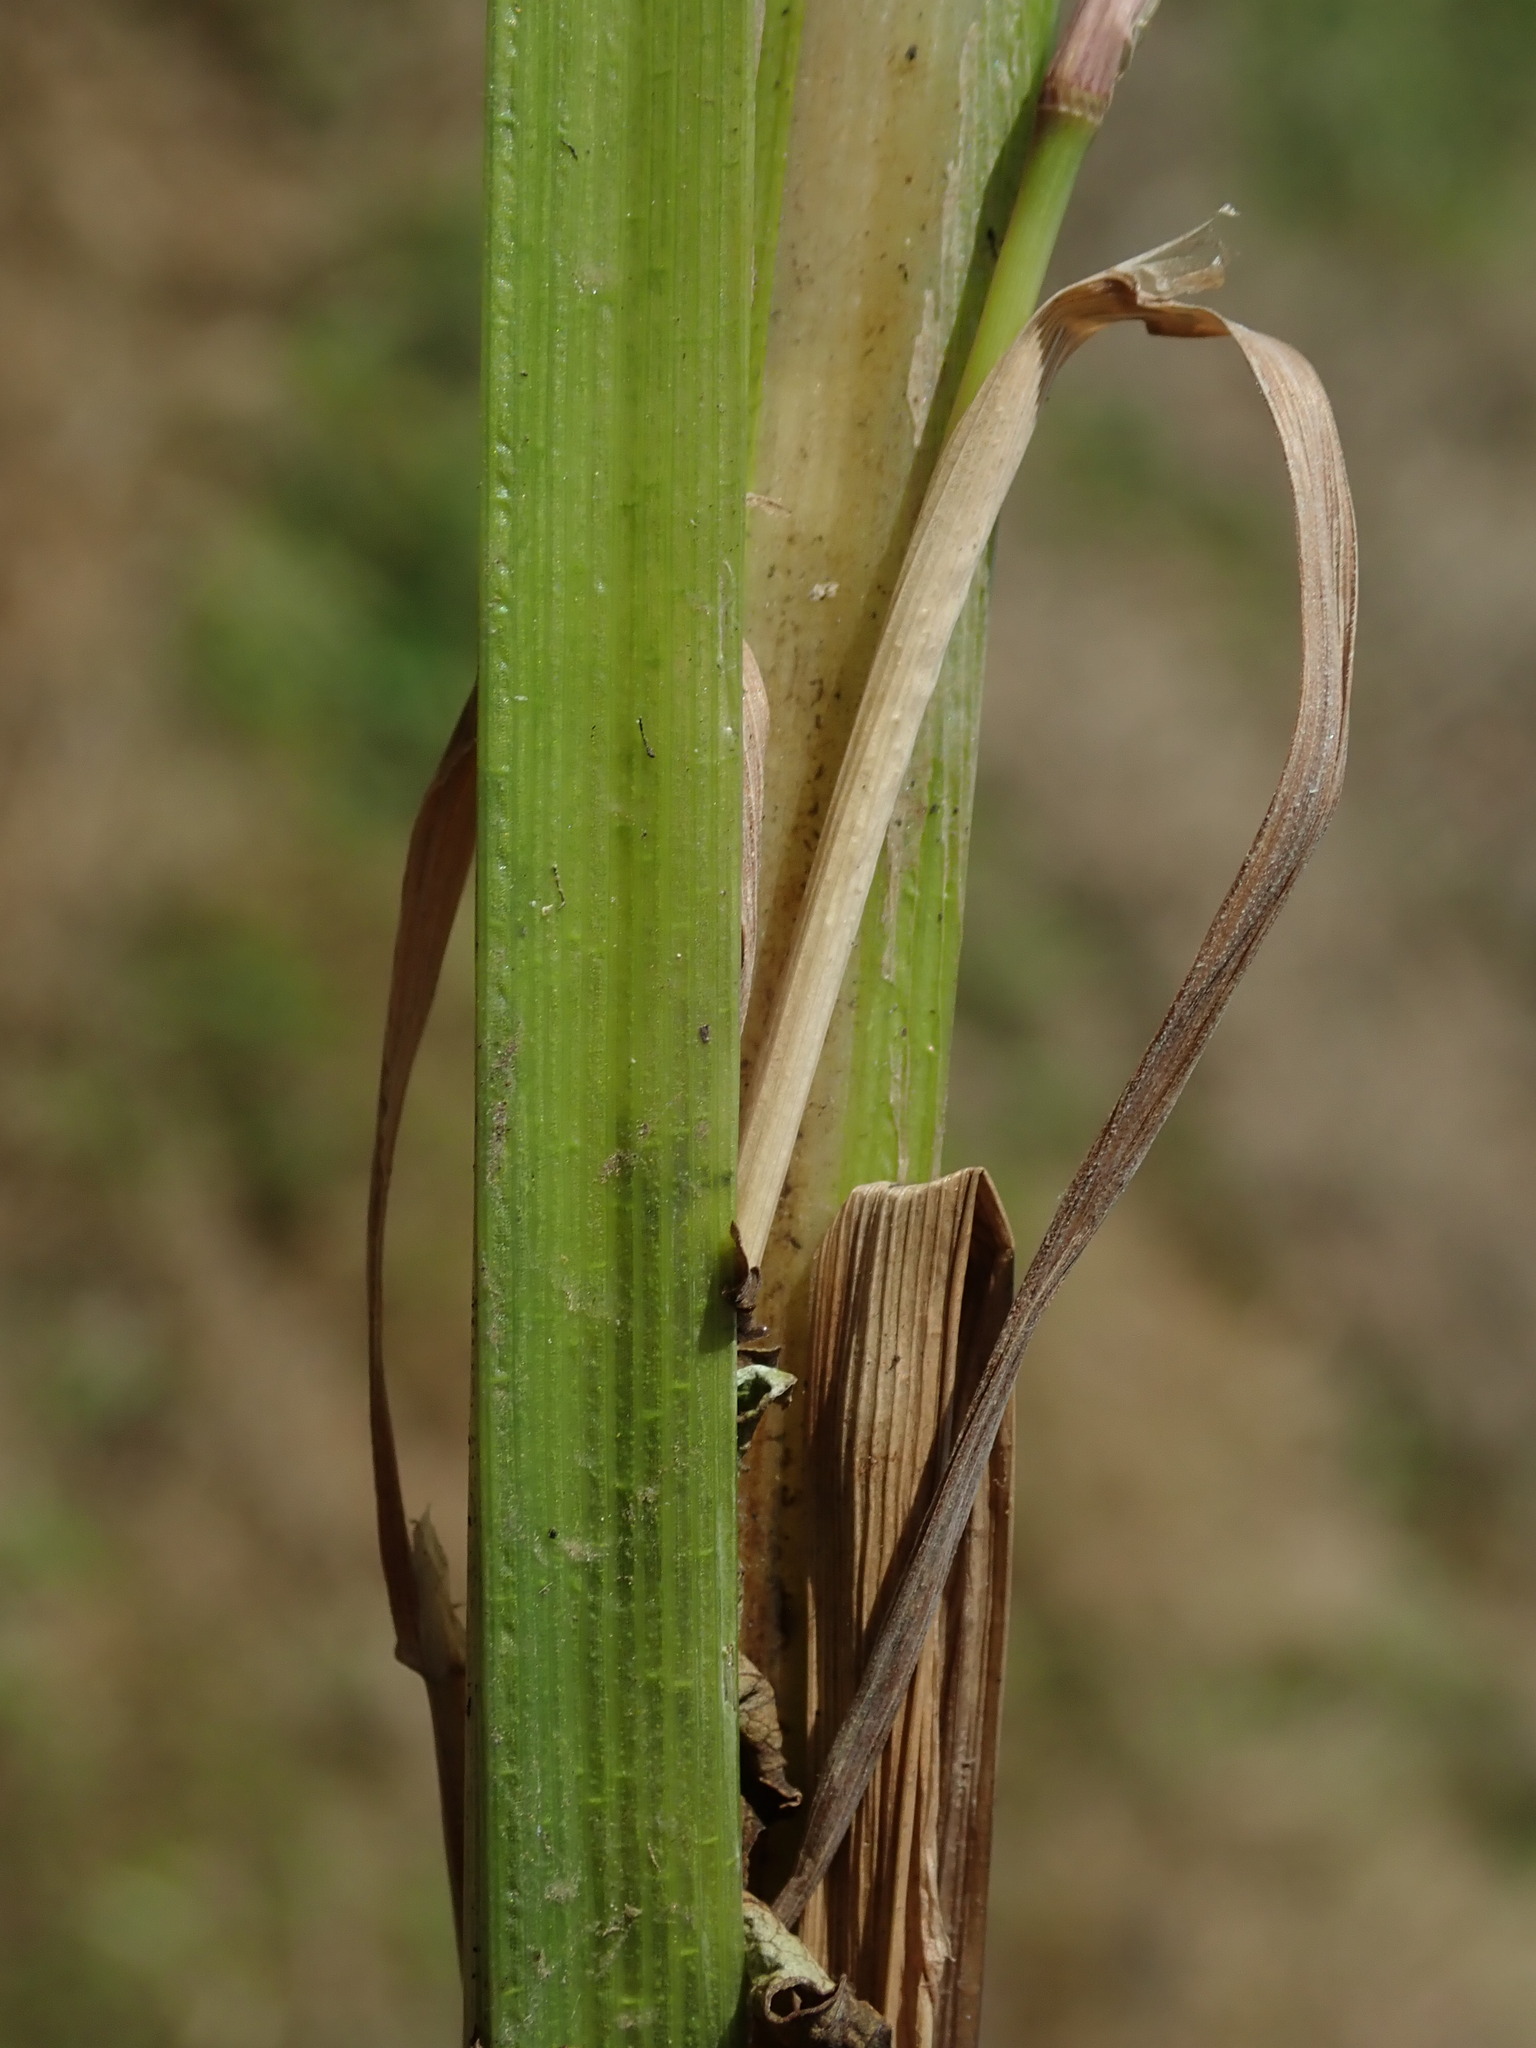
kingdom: Plantae
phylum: Tracheophyta
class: Liliopsida
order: Poales
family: Cyperaceae
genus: Carex
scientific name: Carex pseudocyperus
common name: Cyperus sedge
